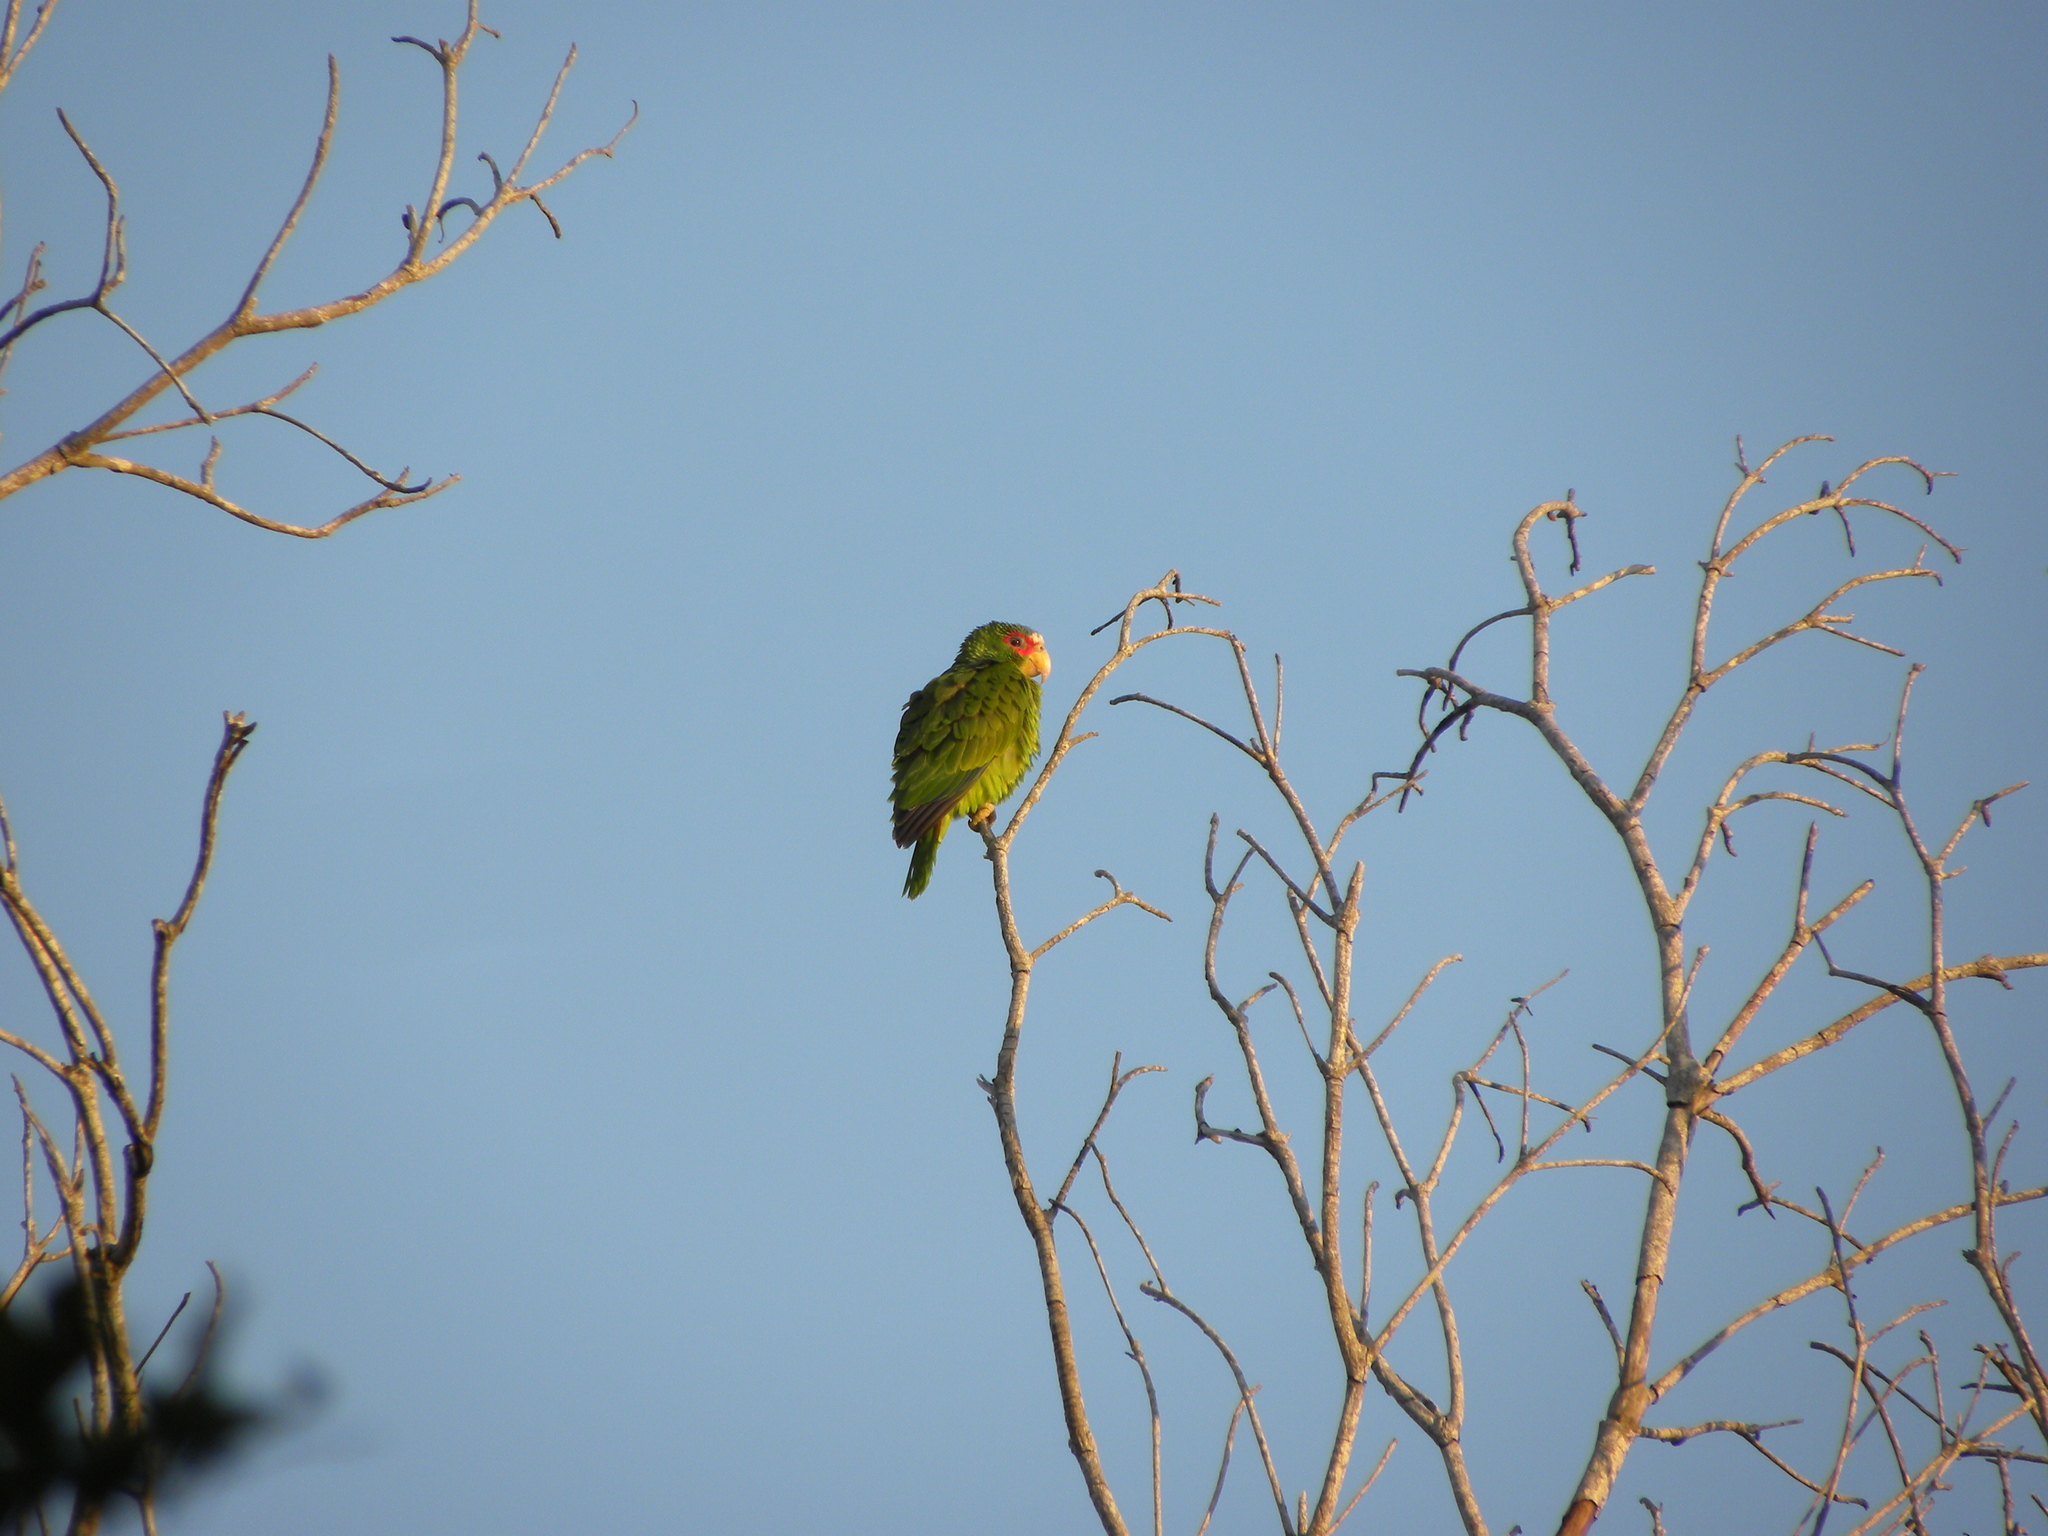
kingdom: Animalia
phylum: Chordata
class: Aves
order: Psittaciformes
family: Psittacidae
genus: Amazona
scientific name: Amazona albifrons
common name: White-fronted amazon
